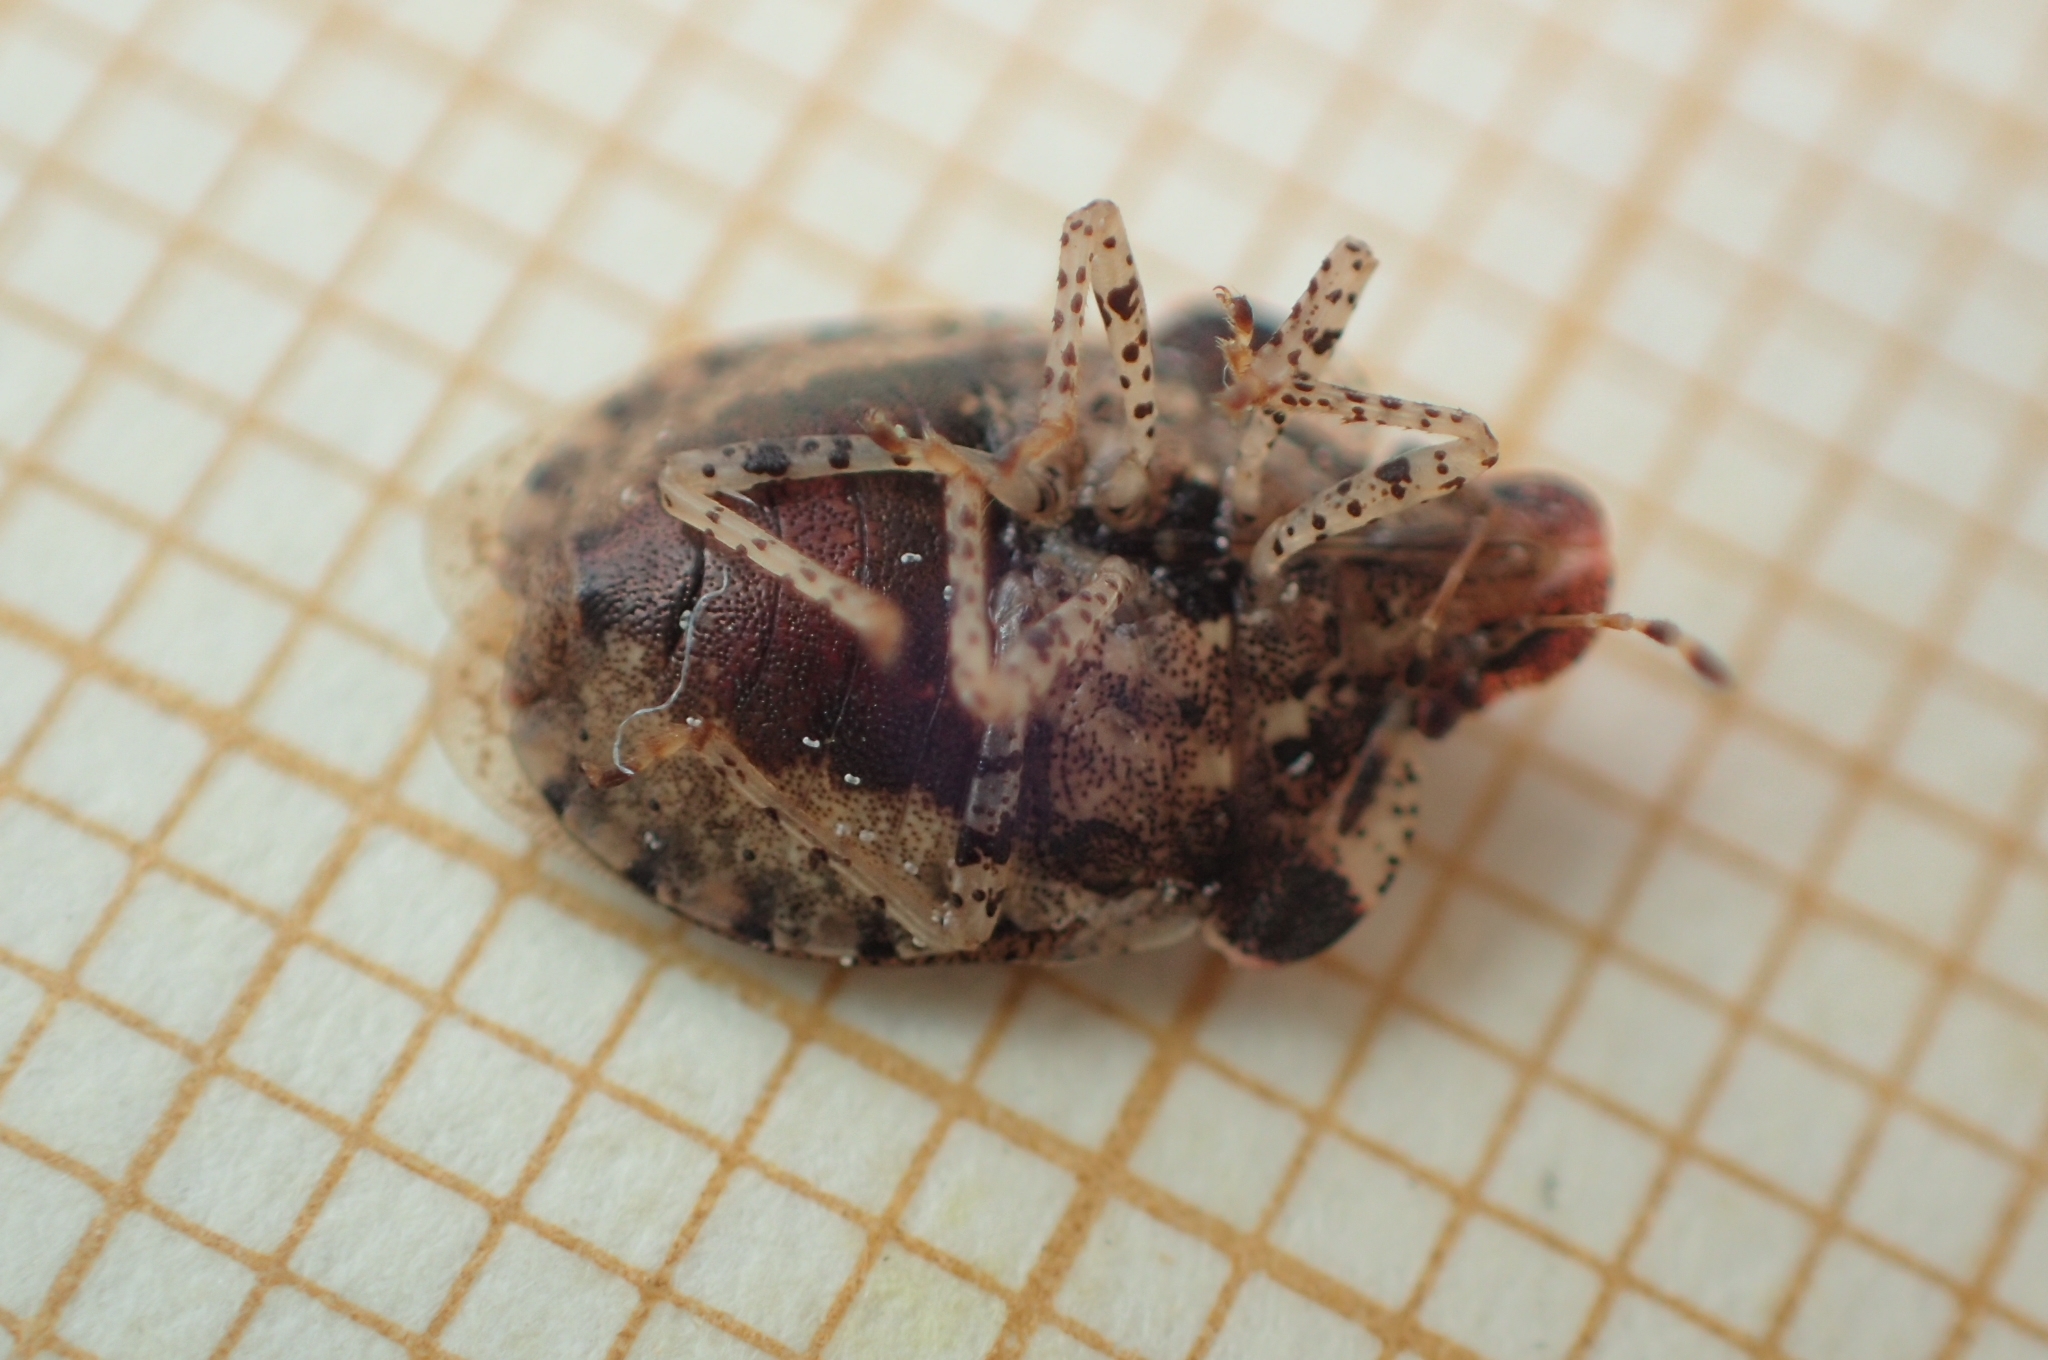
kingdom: Animalia
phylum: Arthropoda
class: Insecta
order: Hemiptera
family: Pentatomidae
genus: Dyroderes
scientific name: Dyroderes umbraculatus
